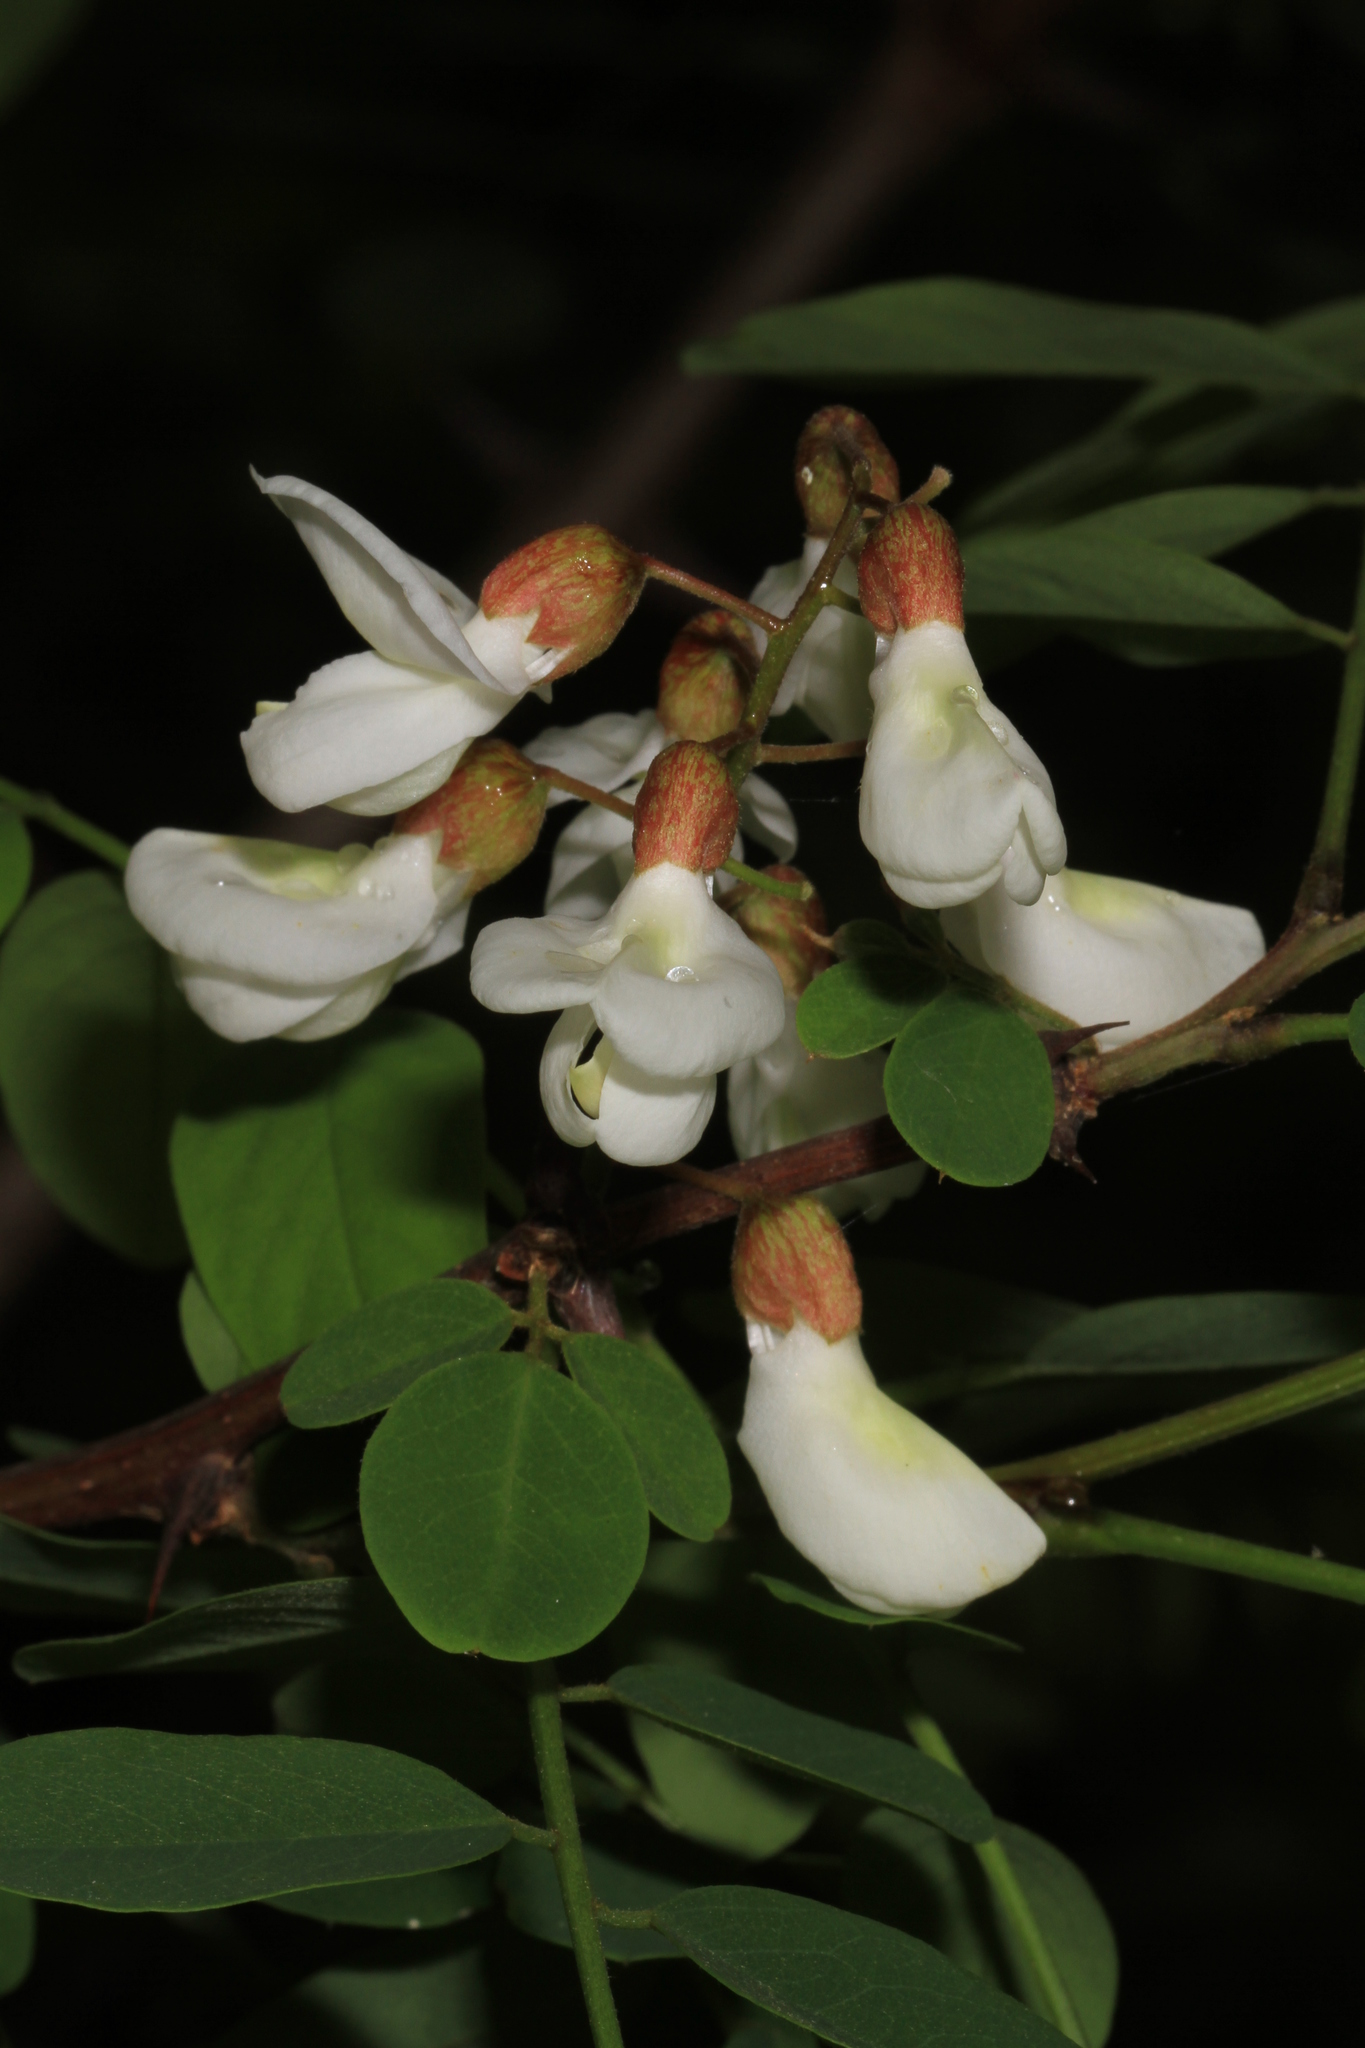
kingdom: Plantae
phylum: Tracheophyta
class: Magnoliopsida
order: Fabales
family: Fabaceae
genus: Robinia
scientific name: Robinia pseudoacacia
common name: Black locust
